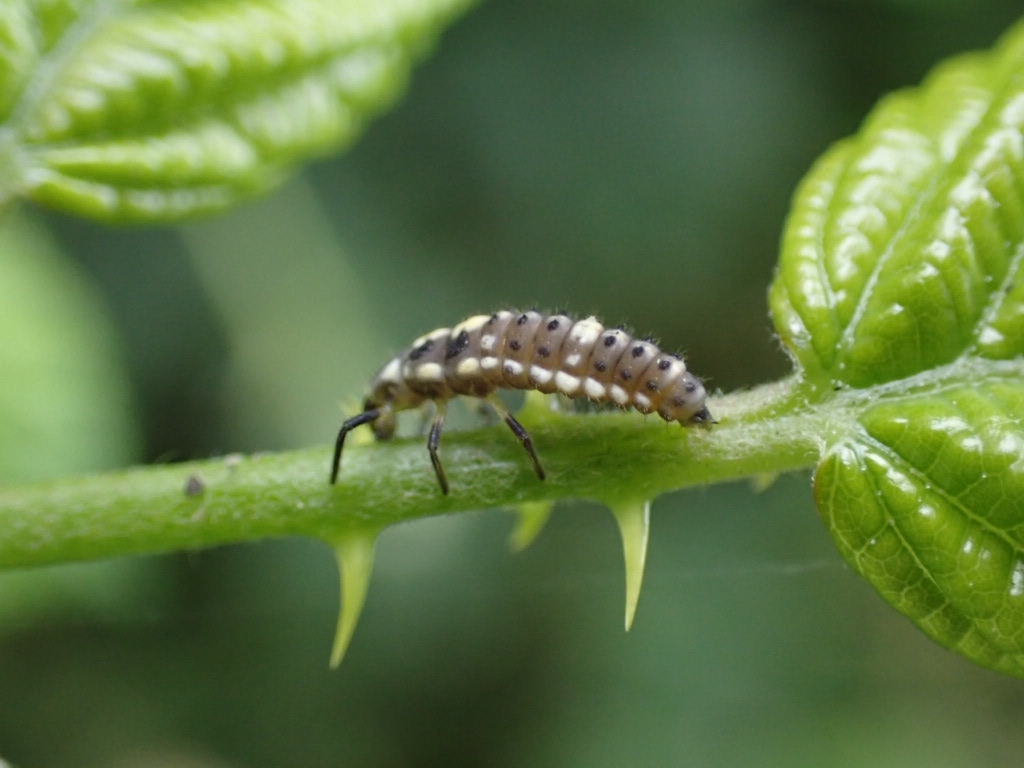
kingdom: Animalia
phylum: Arthropoda
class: Insecta
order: Coleoptera
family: Coccinellidae
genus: Propylaea
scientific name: Propylaea quatuordecimpunctata
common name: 14-spotted ladybird beetle
